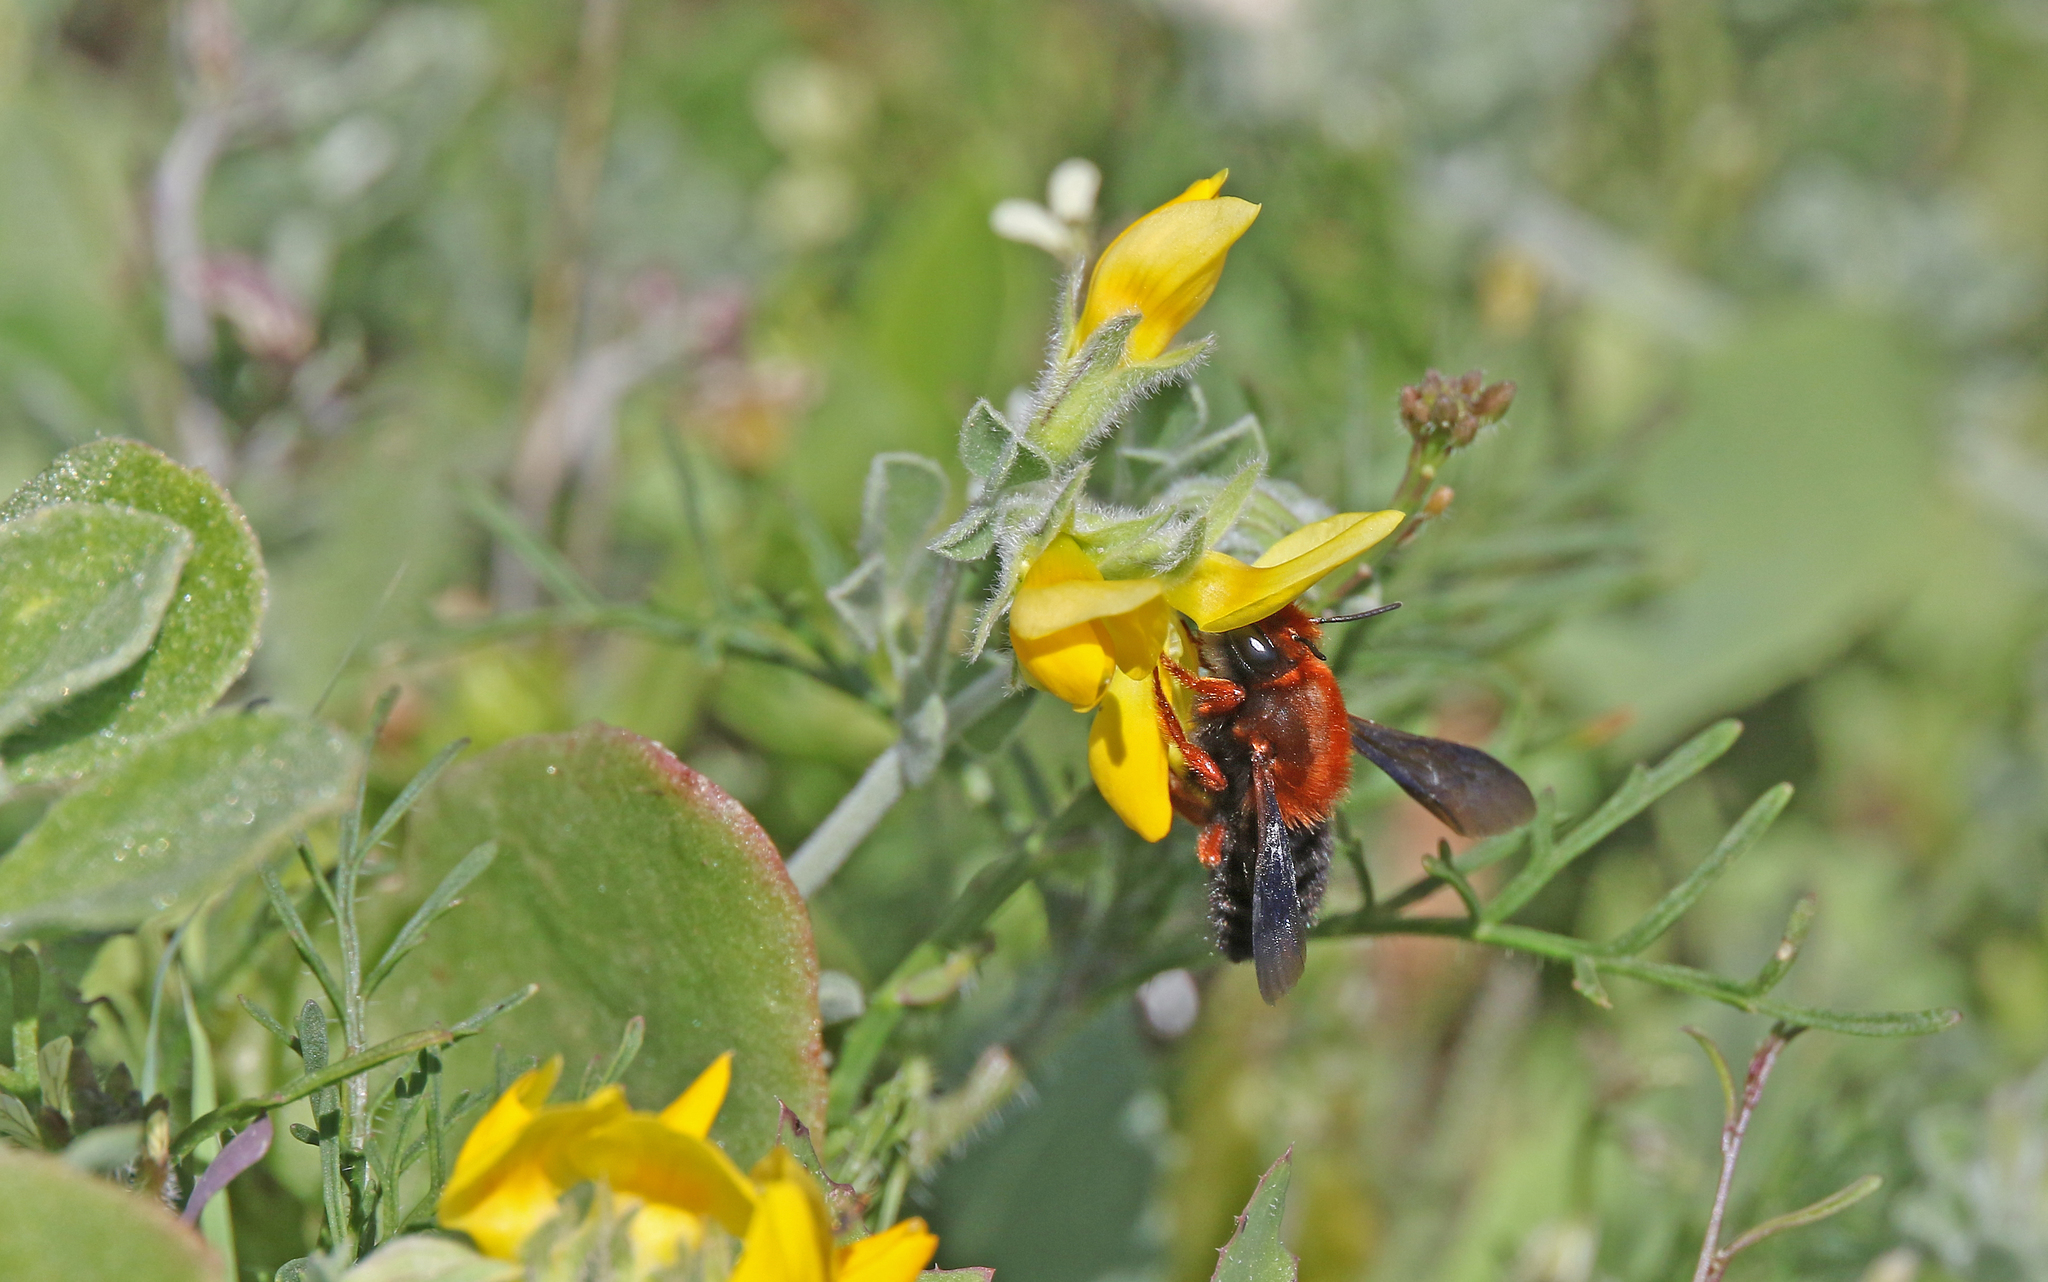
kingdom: Animalia
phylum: Arthropoda
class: Insecta
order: Hymenoptera
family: Megachilidae
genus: Megachile
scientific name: Megachile sicula
